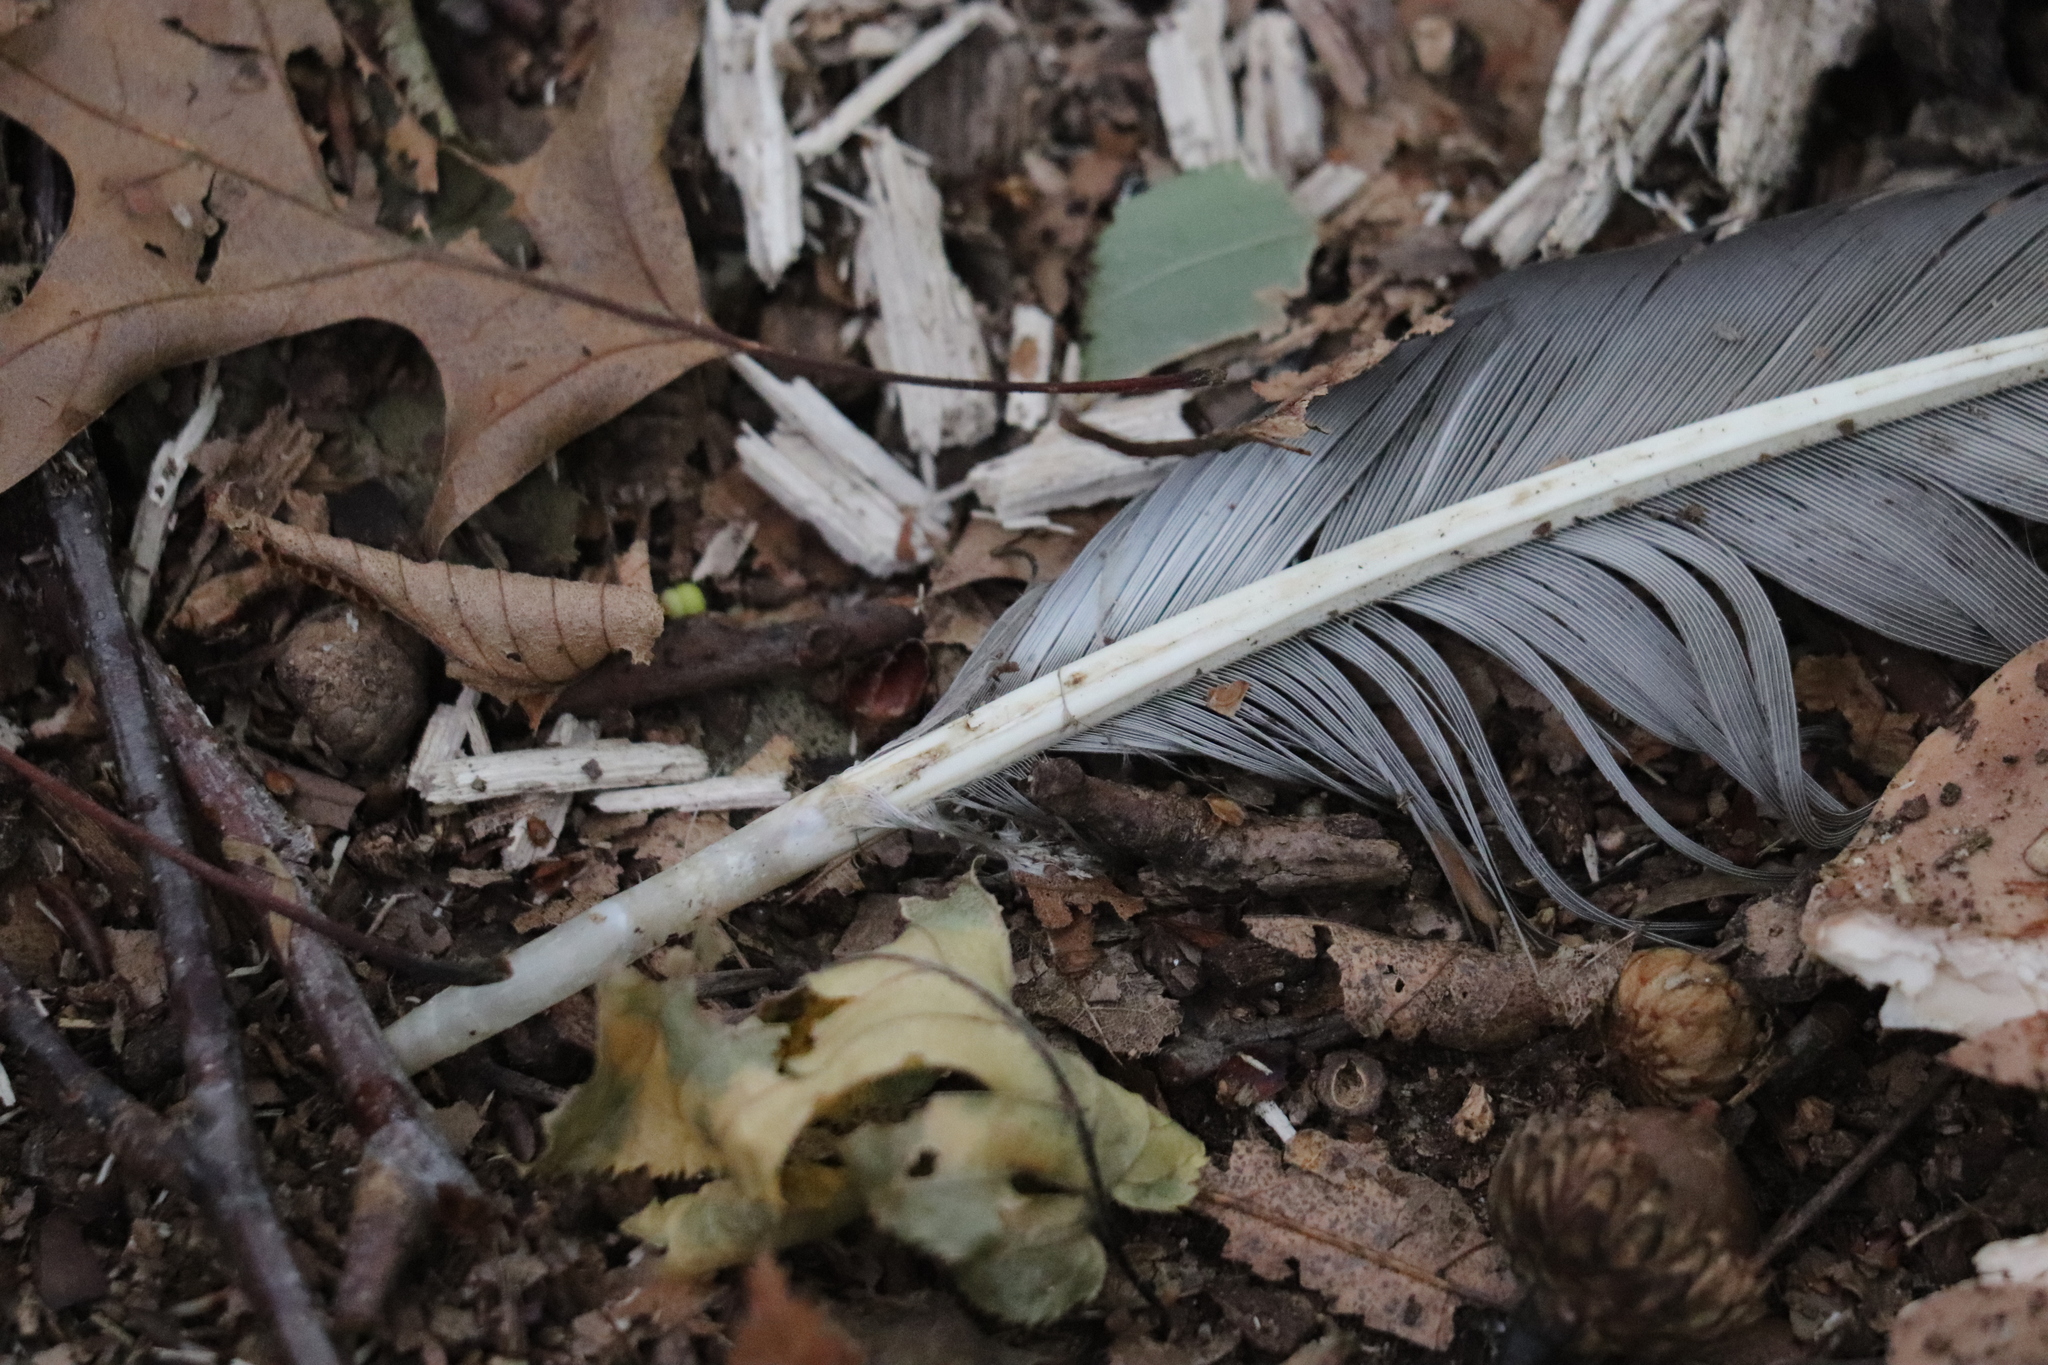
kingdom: Animalia
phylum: Chordata
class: Aves
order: Pelecaniformes
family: Ardeidae
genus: Ardea
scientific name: Ardea herodias
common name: Great blue heron
